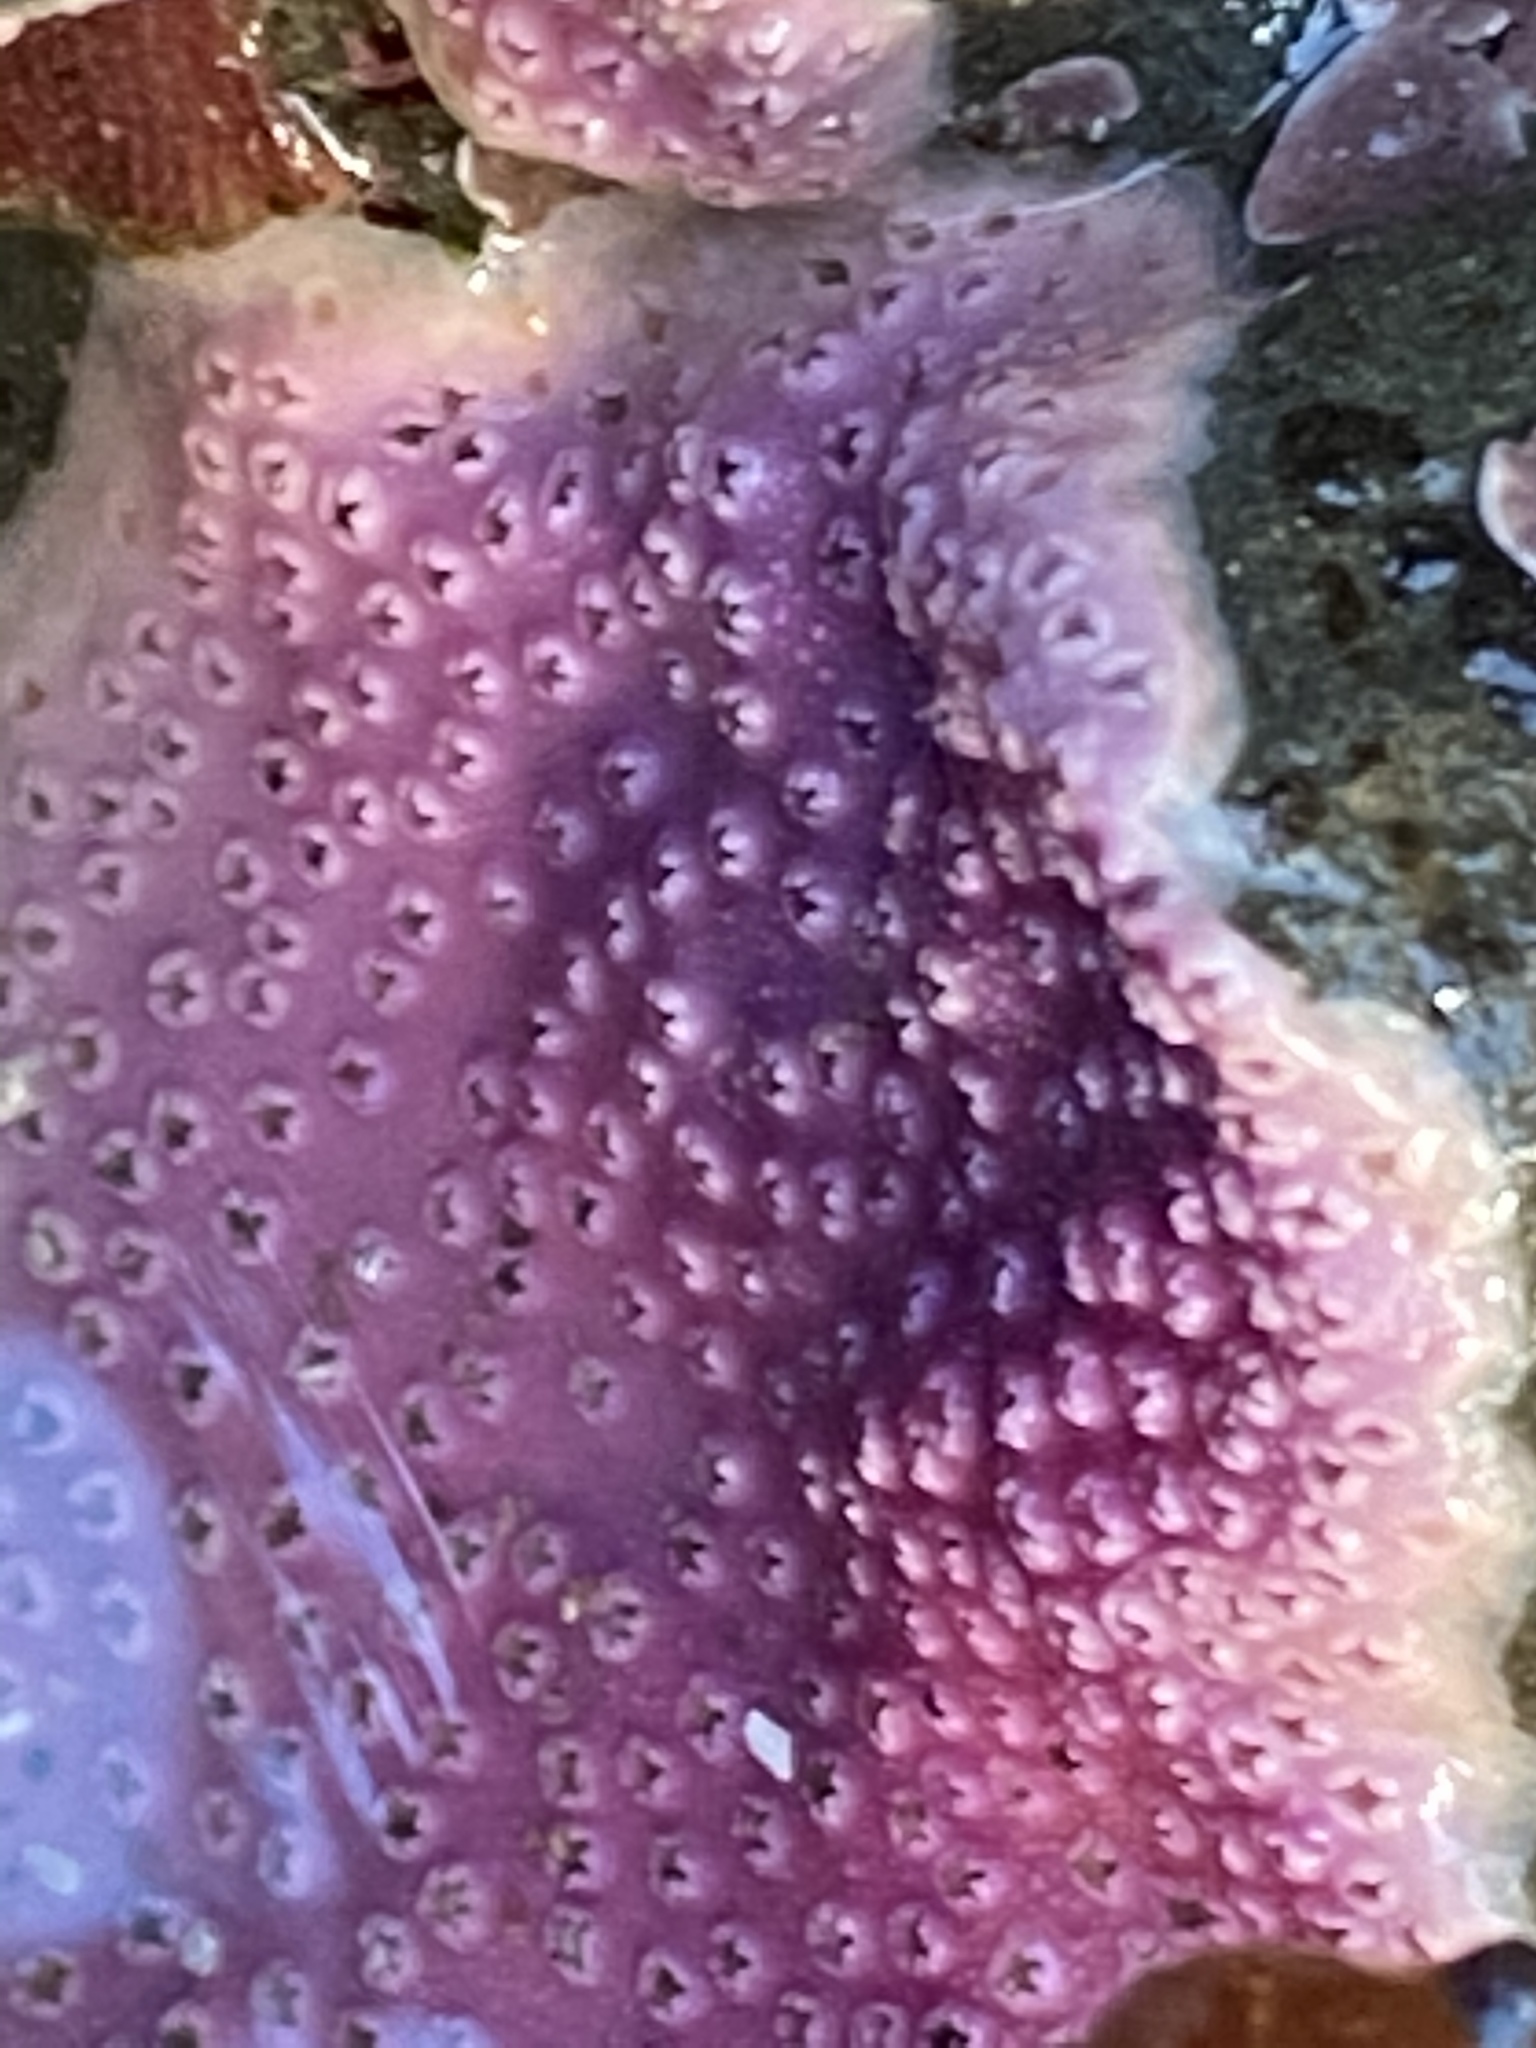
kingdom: Animalia
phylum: Cnidaria
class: Hydrozoa
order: Anthoathecata
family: Stylasteridae
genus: Stylantheca
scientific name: Stylantheca papillosa
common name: Corrugated lace hydrocoral
